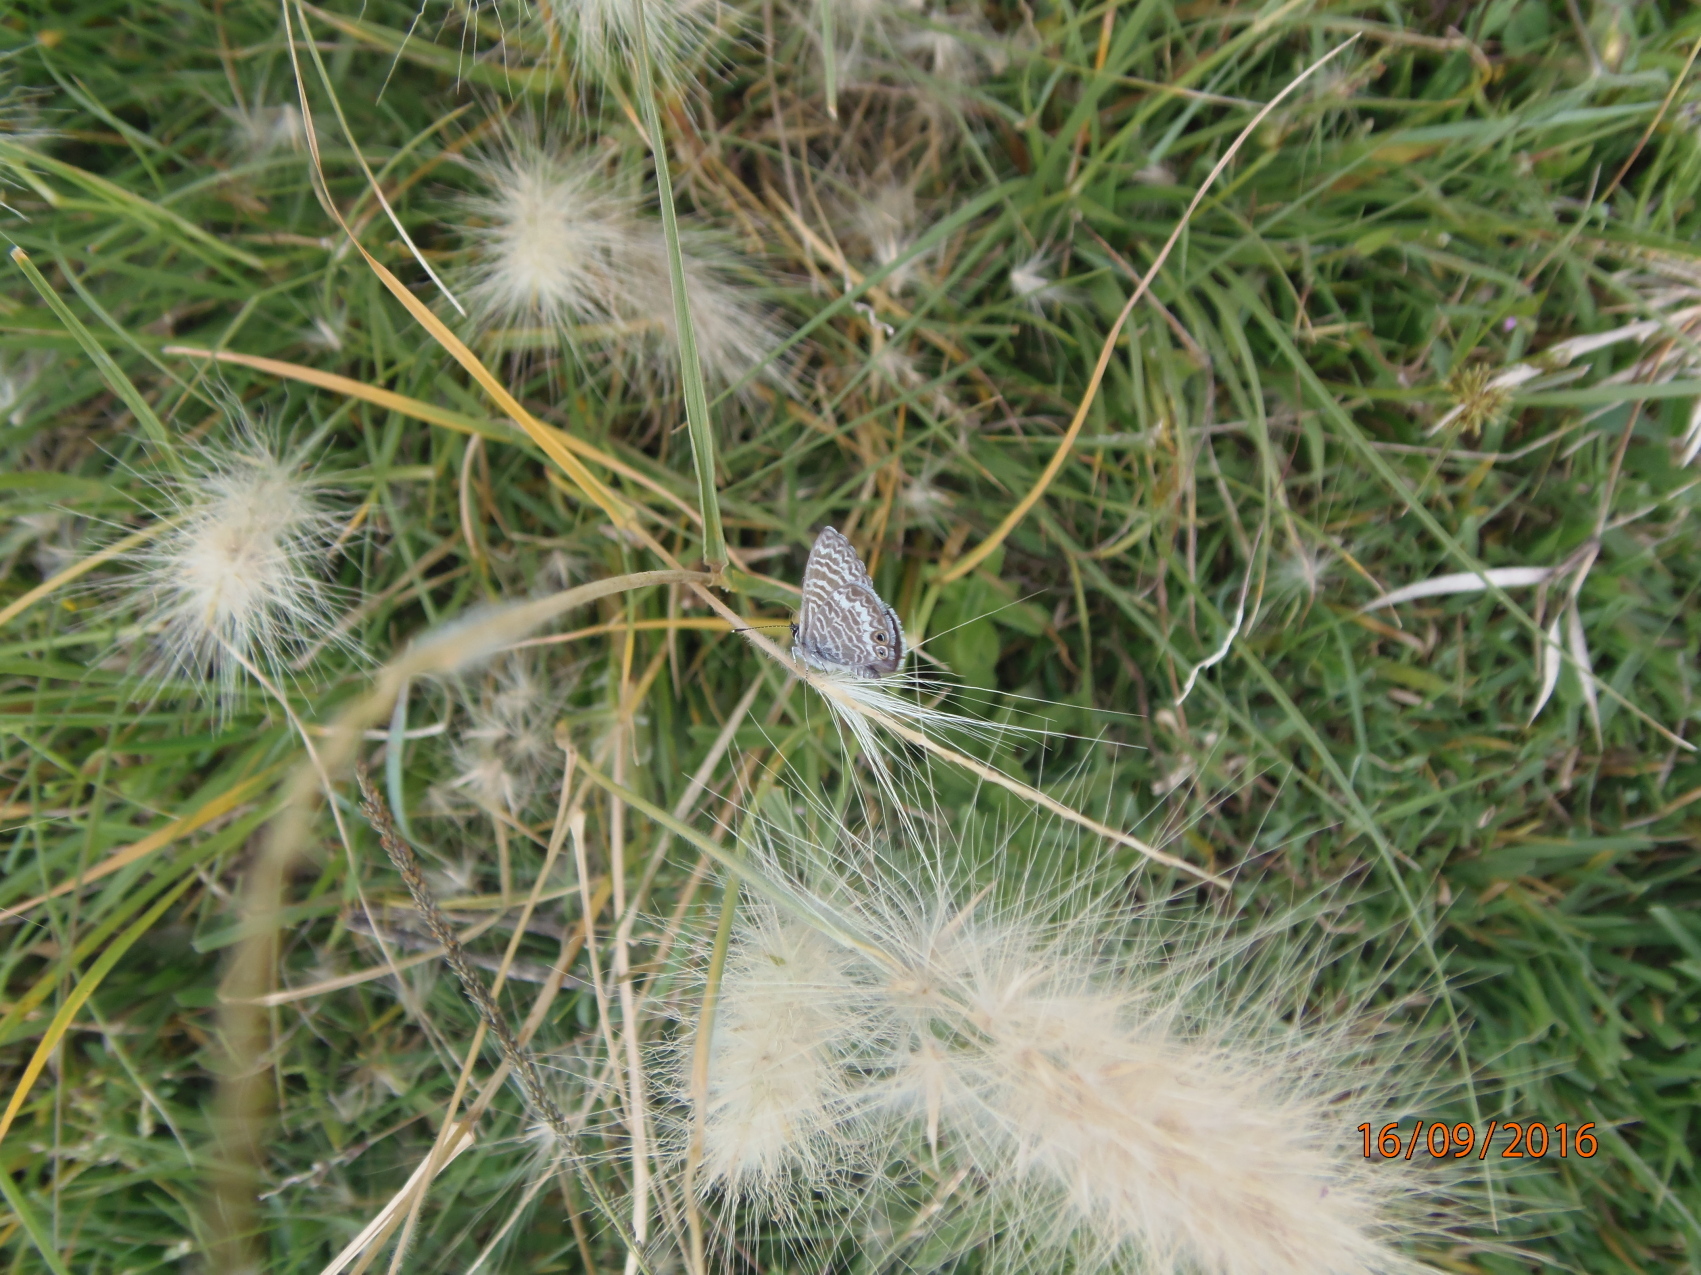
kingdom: Animalia
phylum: Arthropoda
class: Insecta
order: Lepidoptera
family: Lycaenidae
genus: Leptotes
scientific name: Leptotes marina
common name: Marine blue
